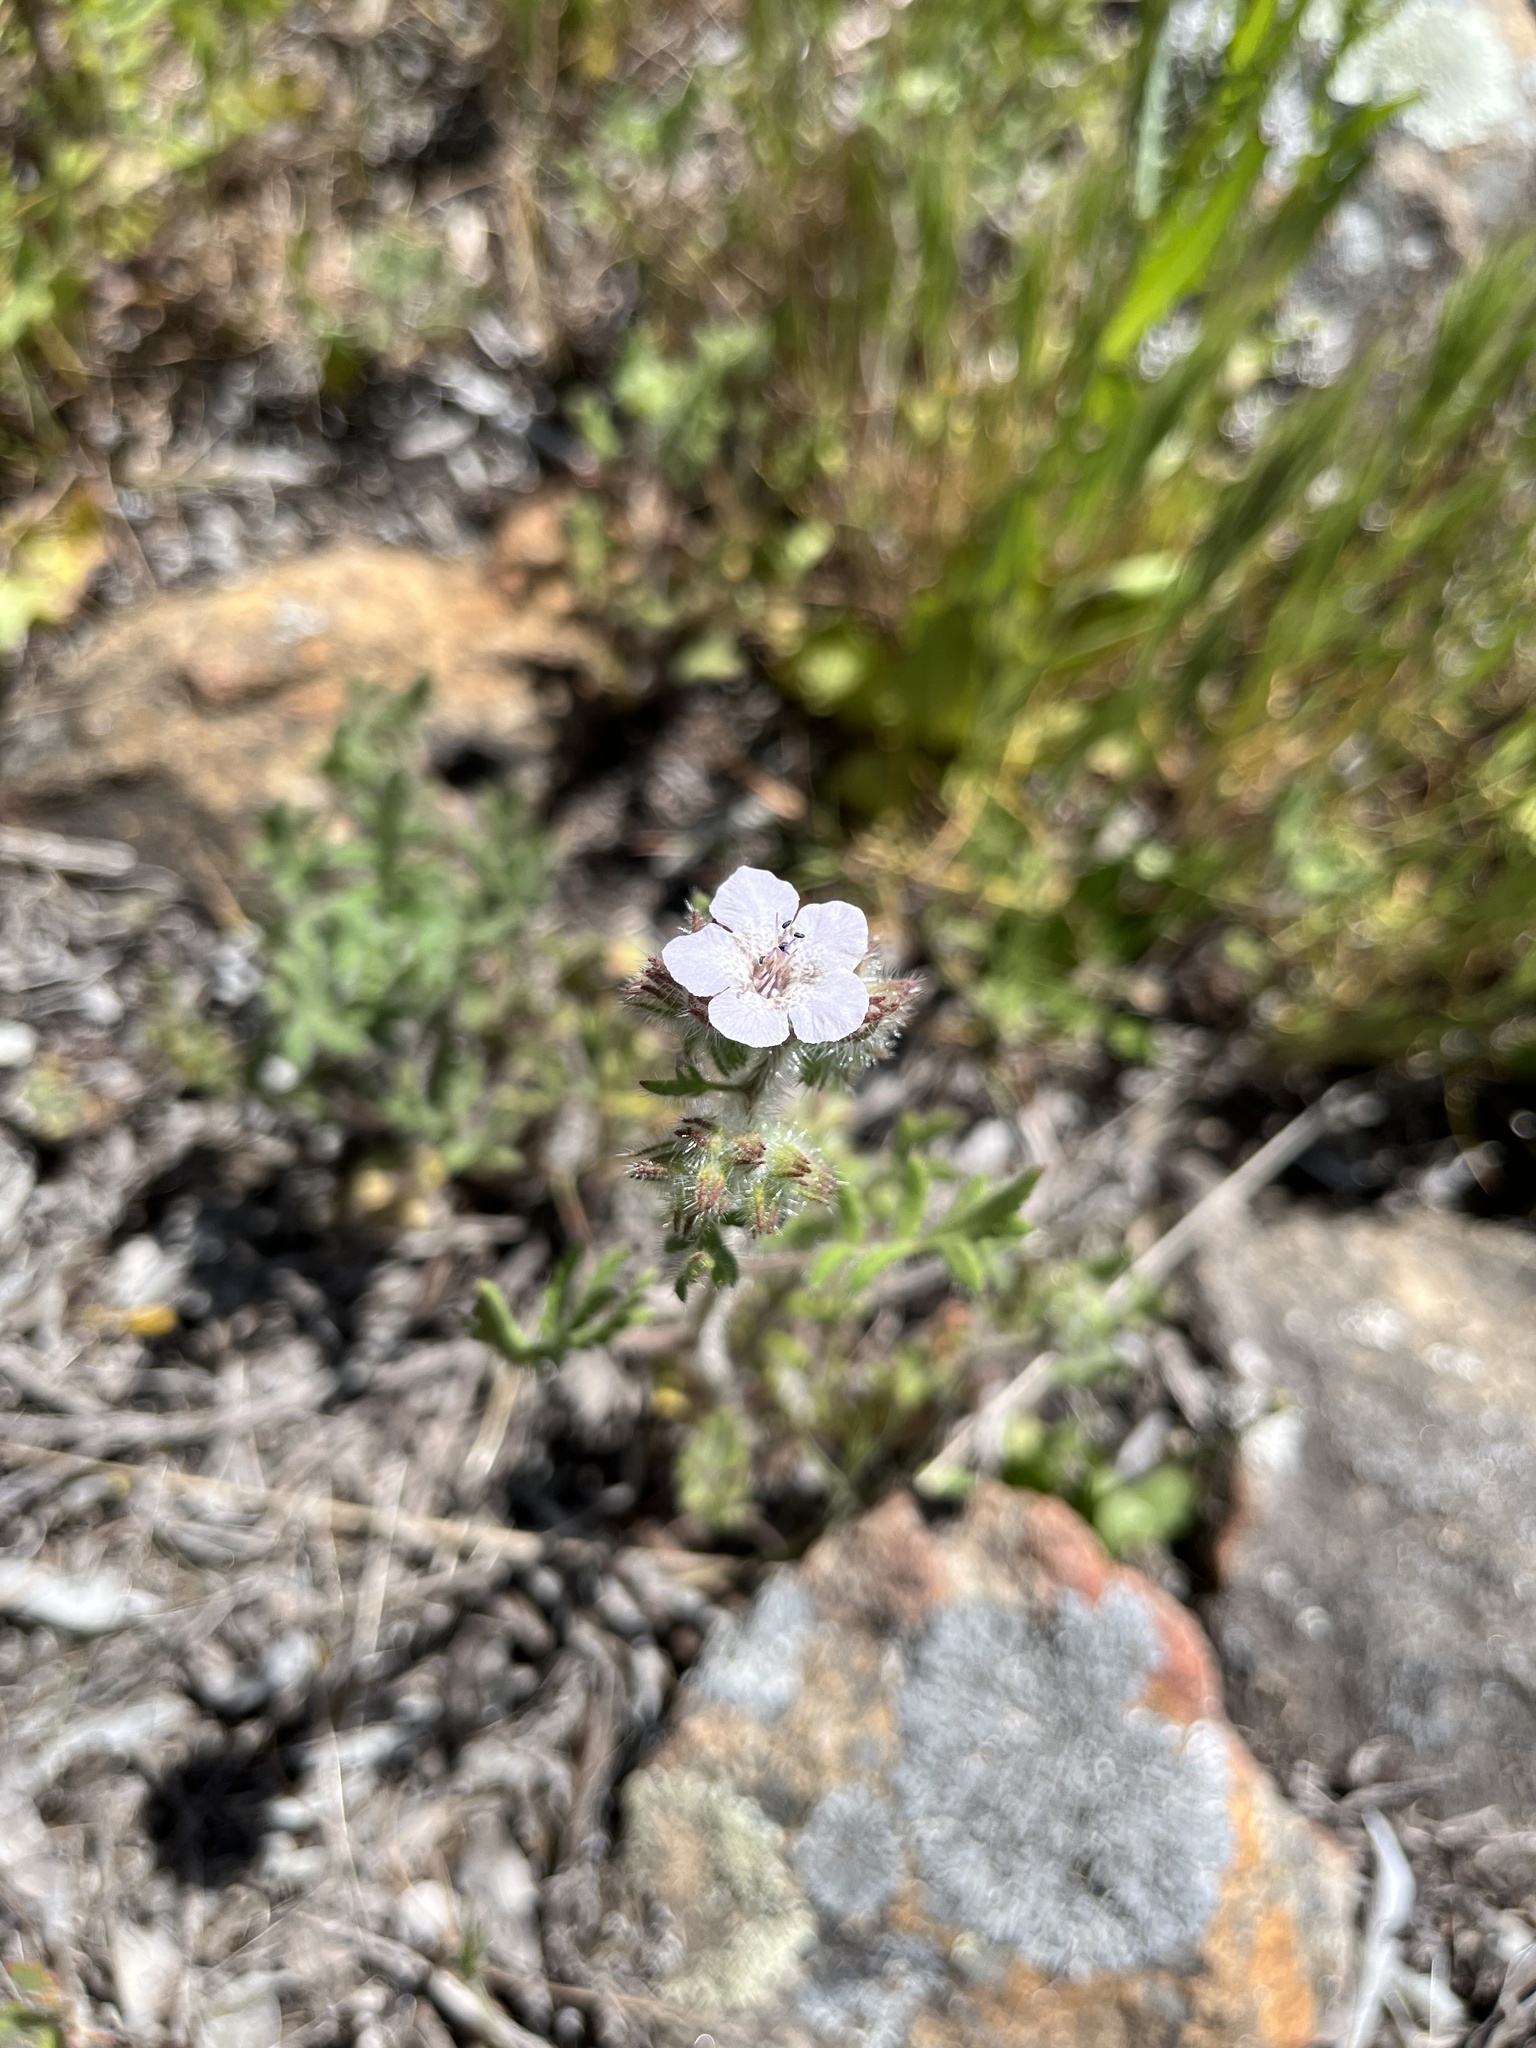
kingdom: Plantae
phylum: Tracheophyta
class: Magnoliopsida
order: Boraginales
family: Hydrophyllaceae
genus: Phacelia
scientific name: Phacelia cicutaria
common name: Caterpillar phacelia
